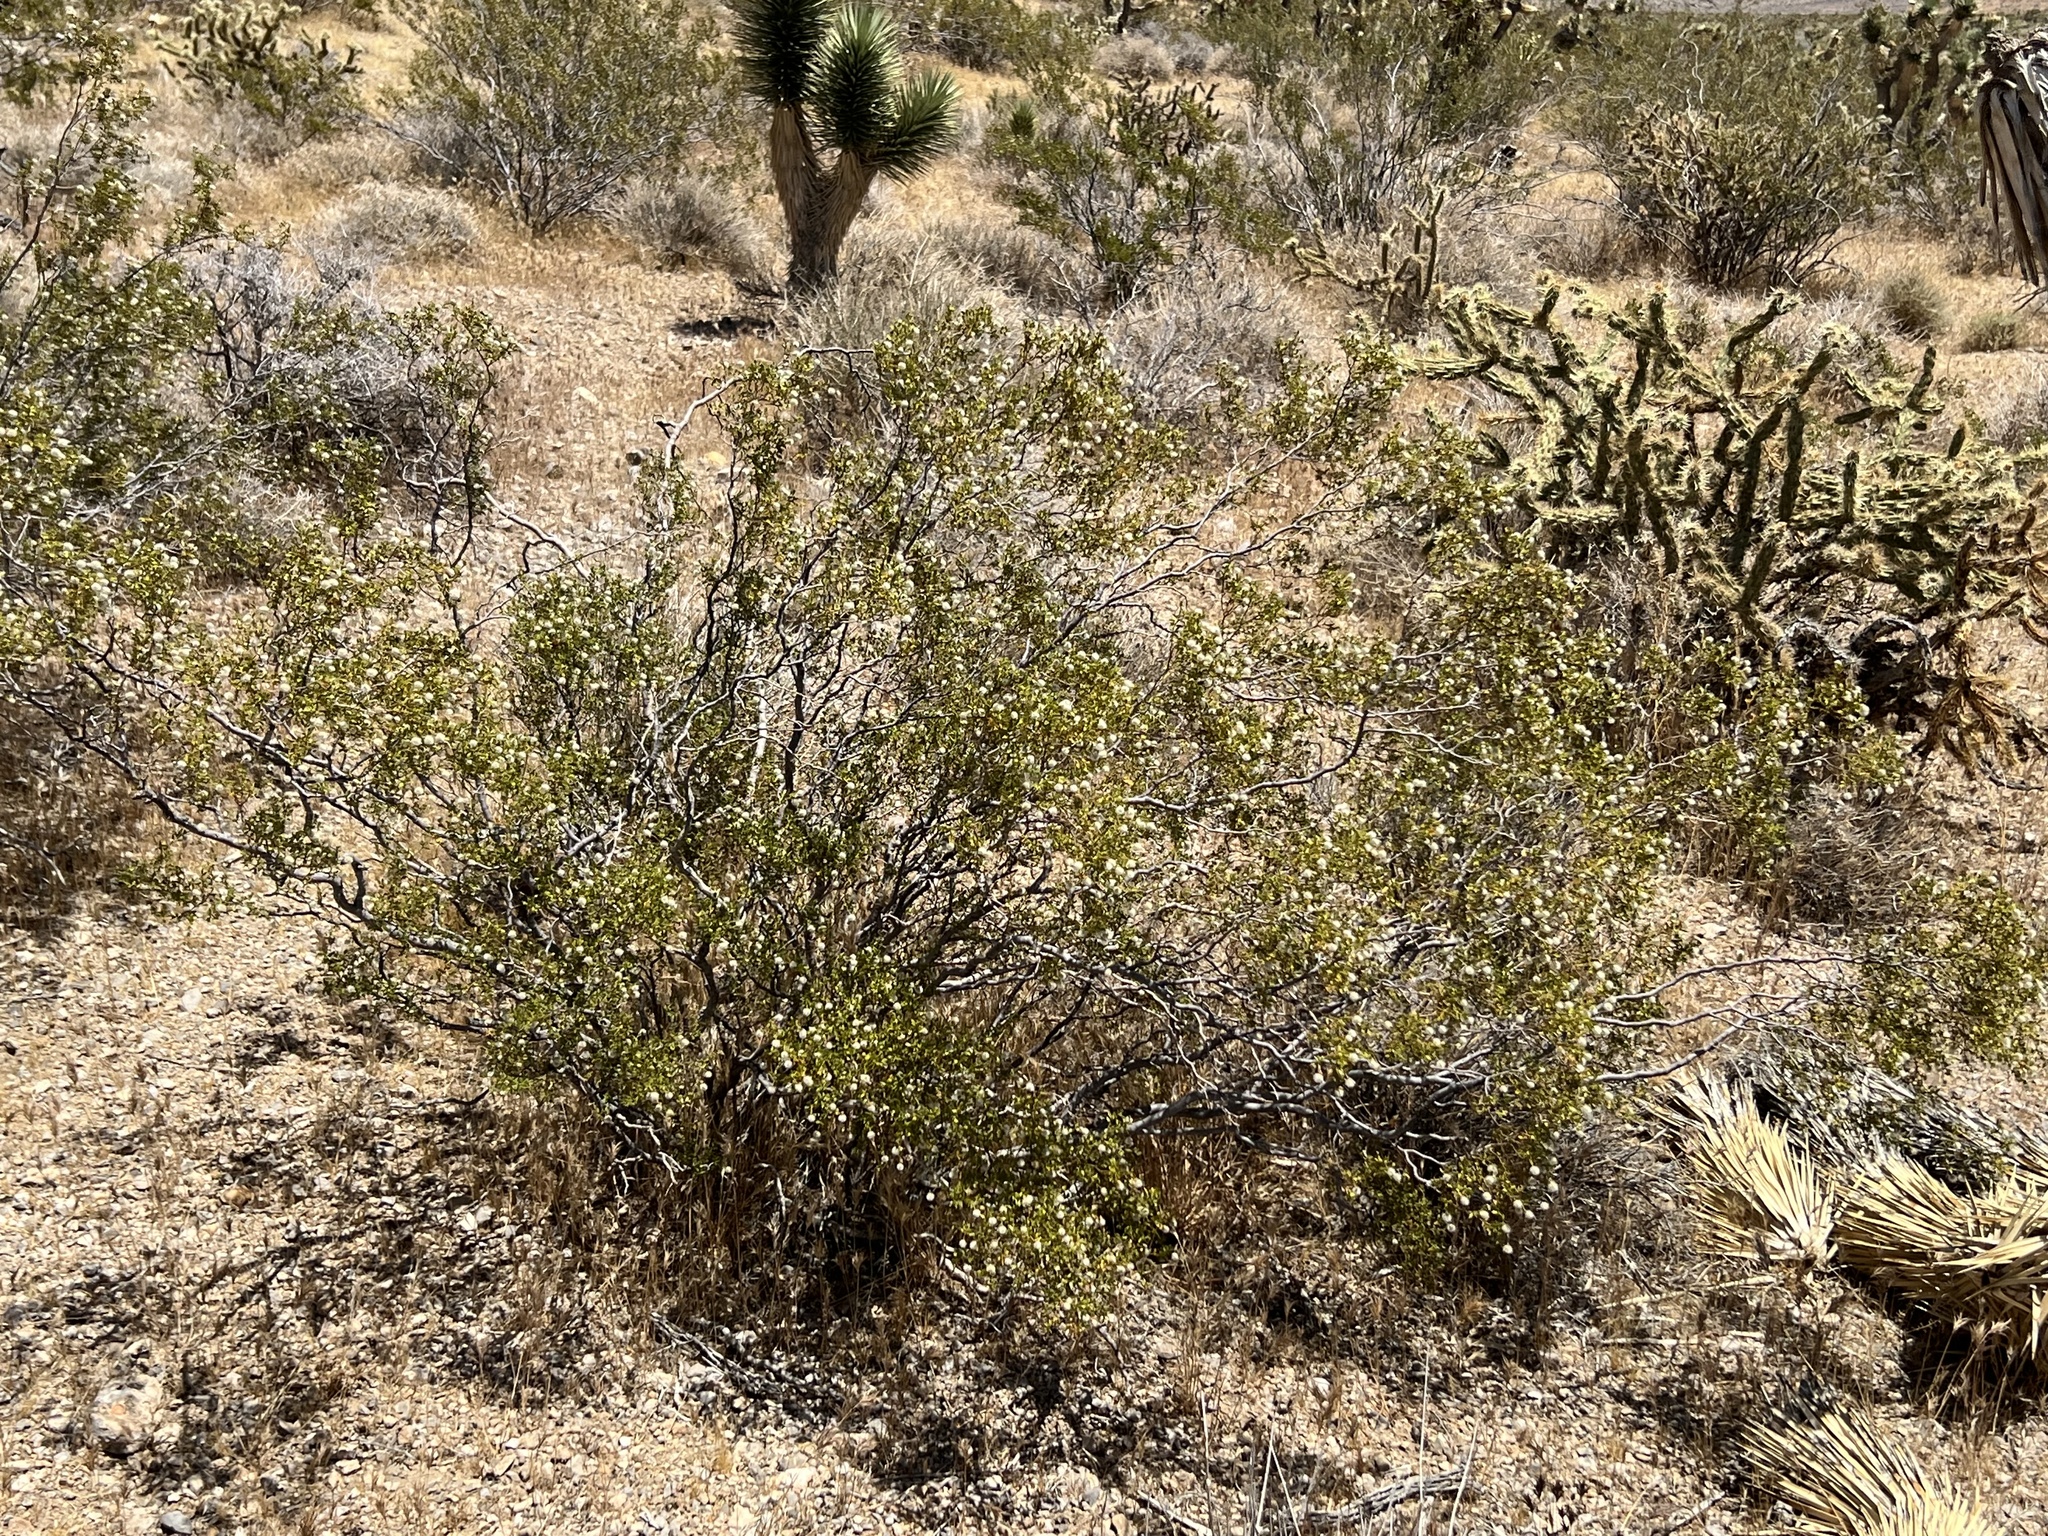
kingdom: Plantae
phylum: Tracheophyta
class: Magnoliopsida
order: Zygophyllales
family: Zygophyllaceae
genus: Larrea
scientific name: Larrea tridentata
